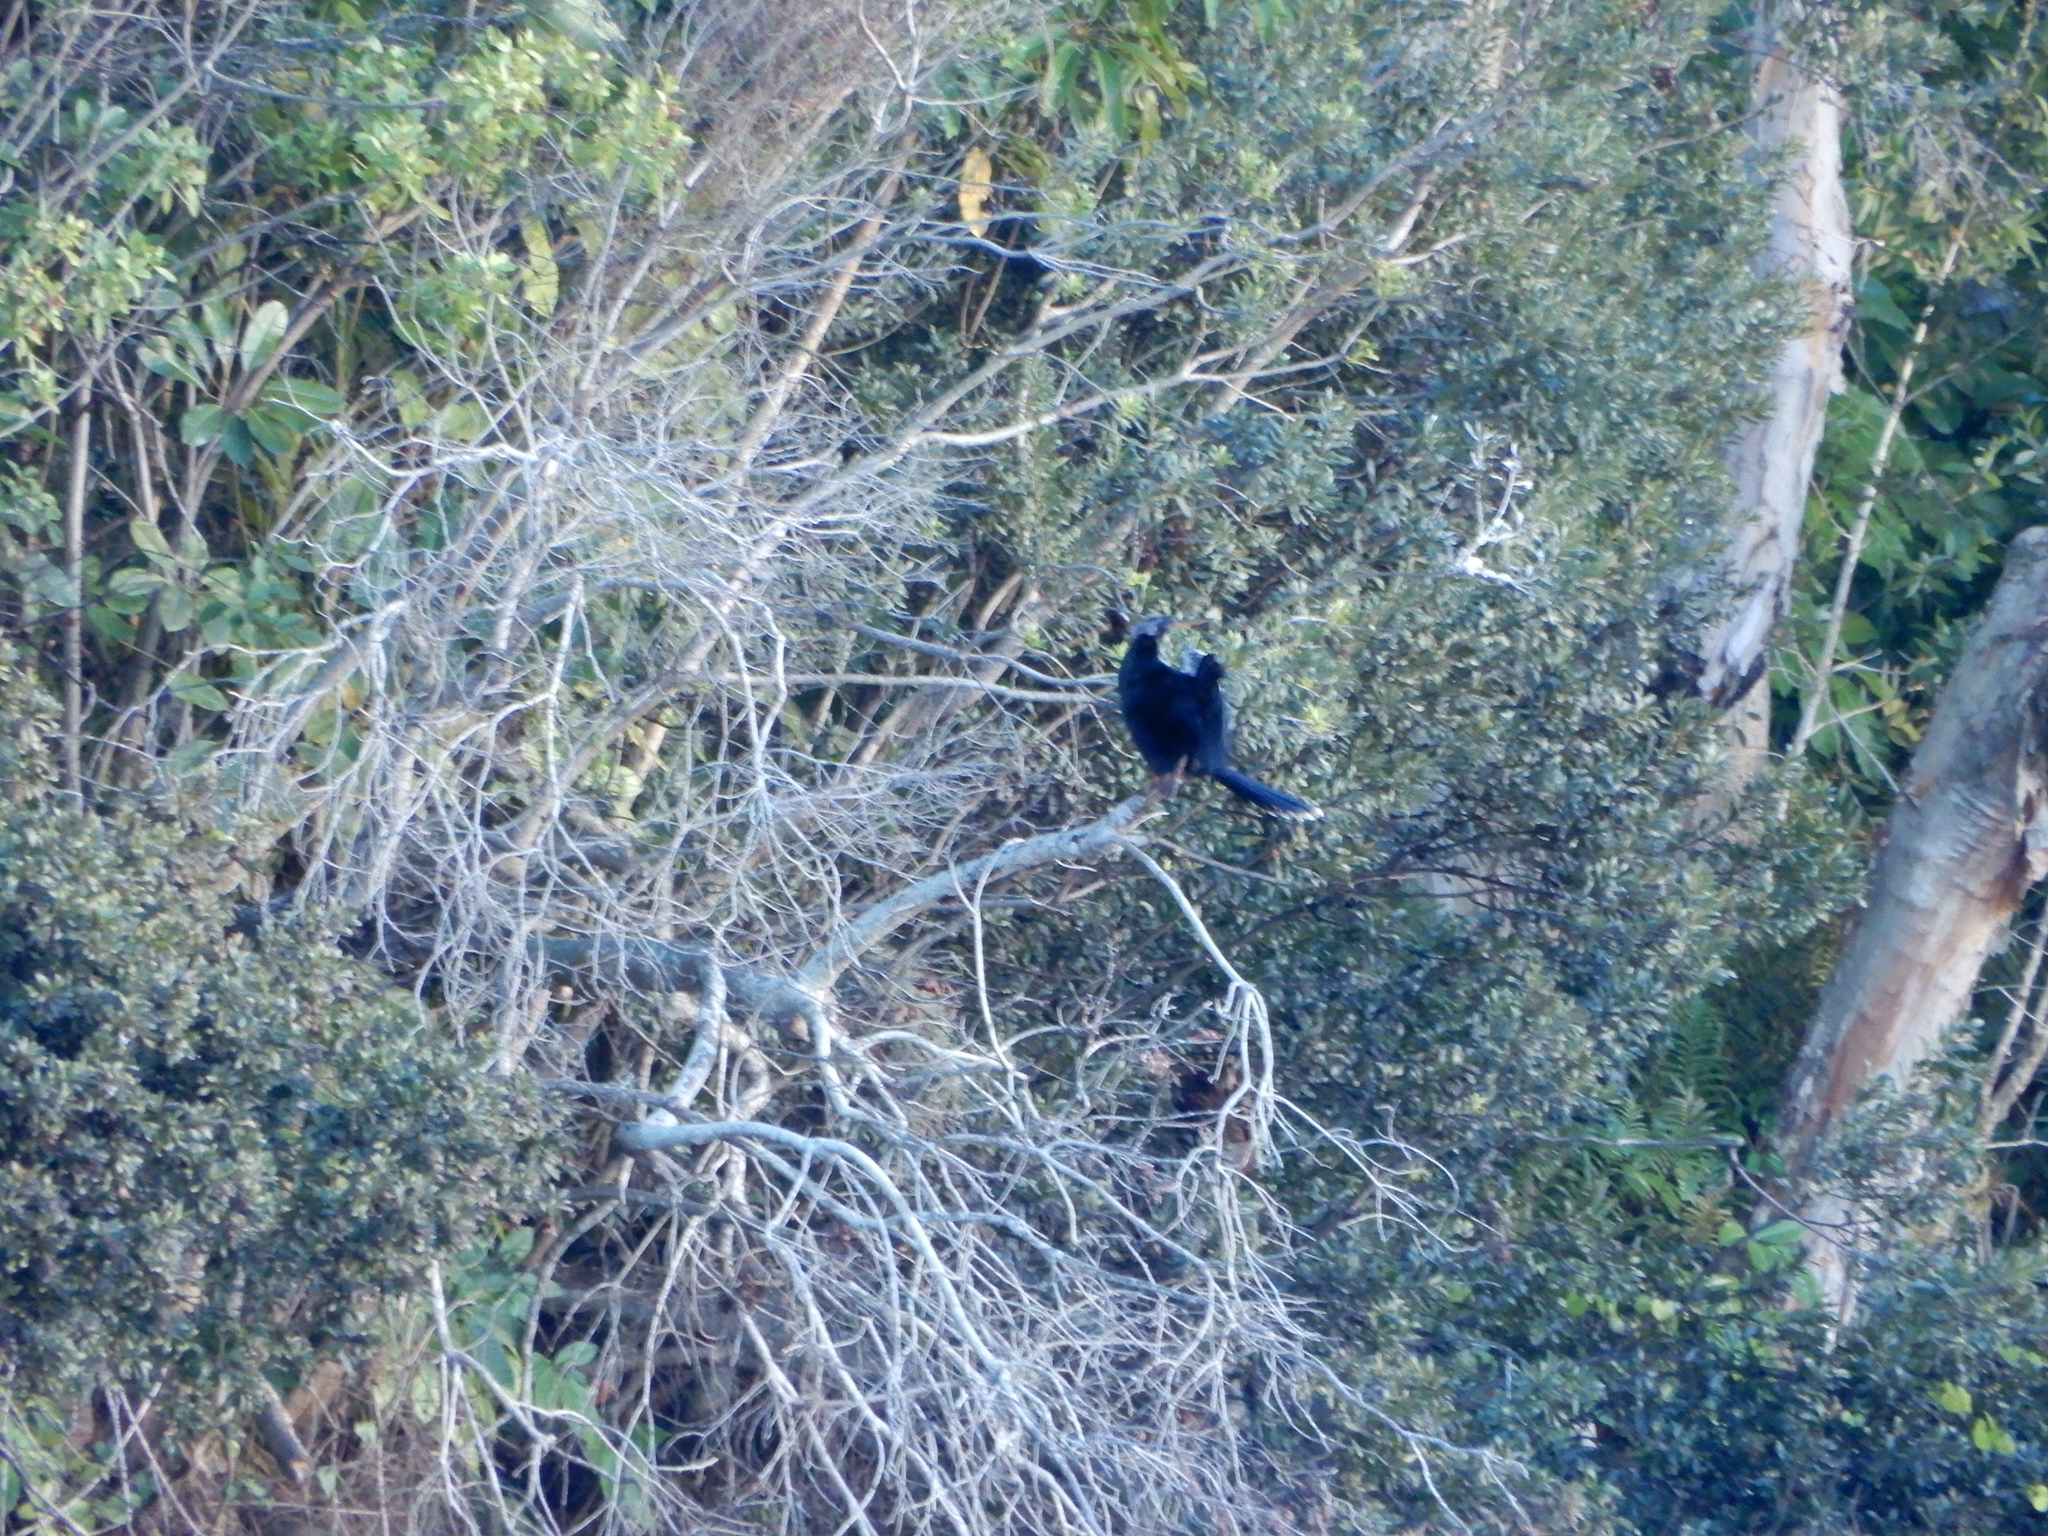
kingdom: Animalia
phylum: Chordata
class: Aves
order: Suliformes
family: Anhingidae
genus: Anhinga
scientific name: Anhinga anhinga
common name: Anhinga
